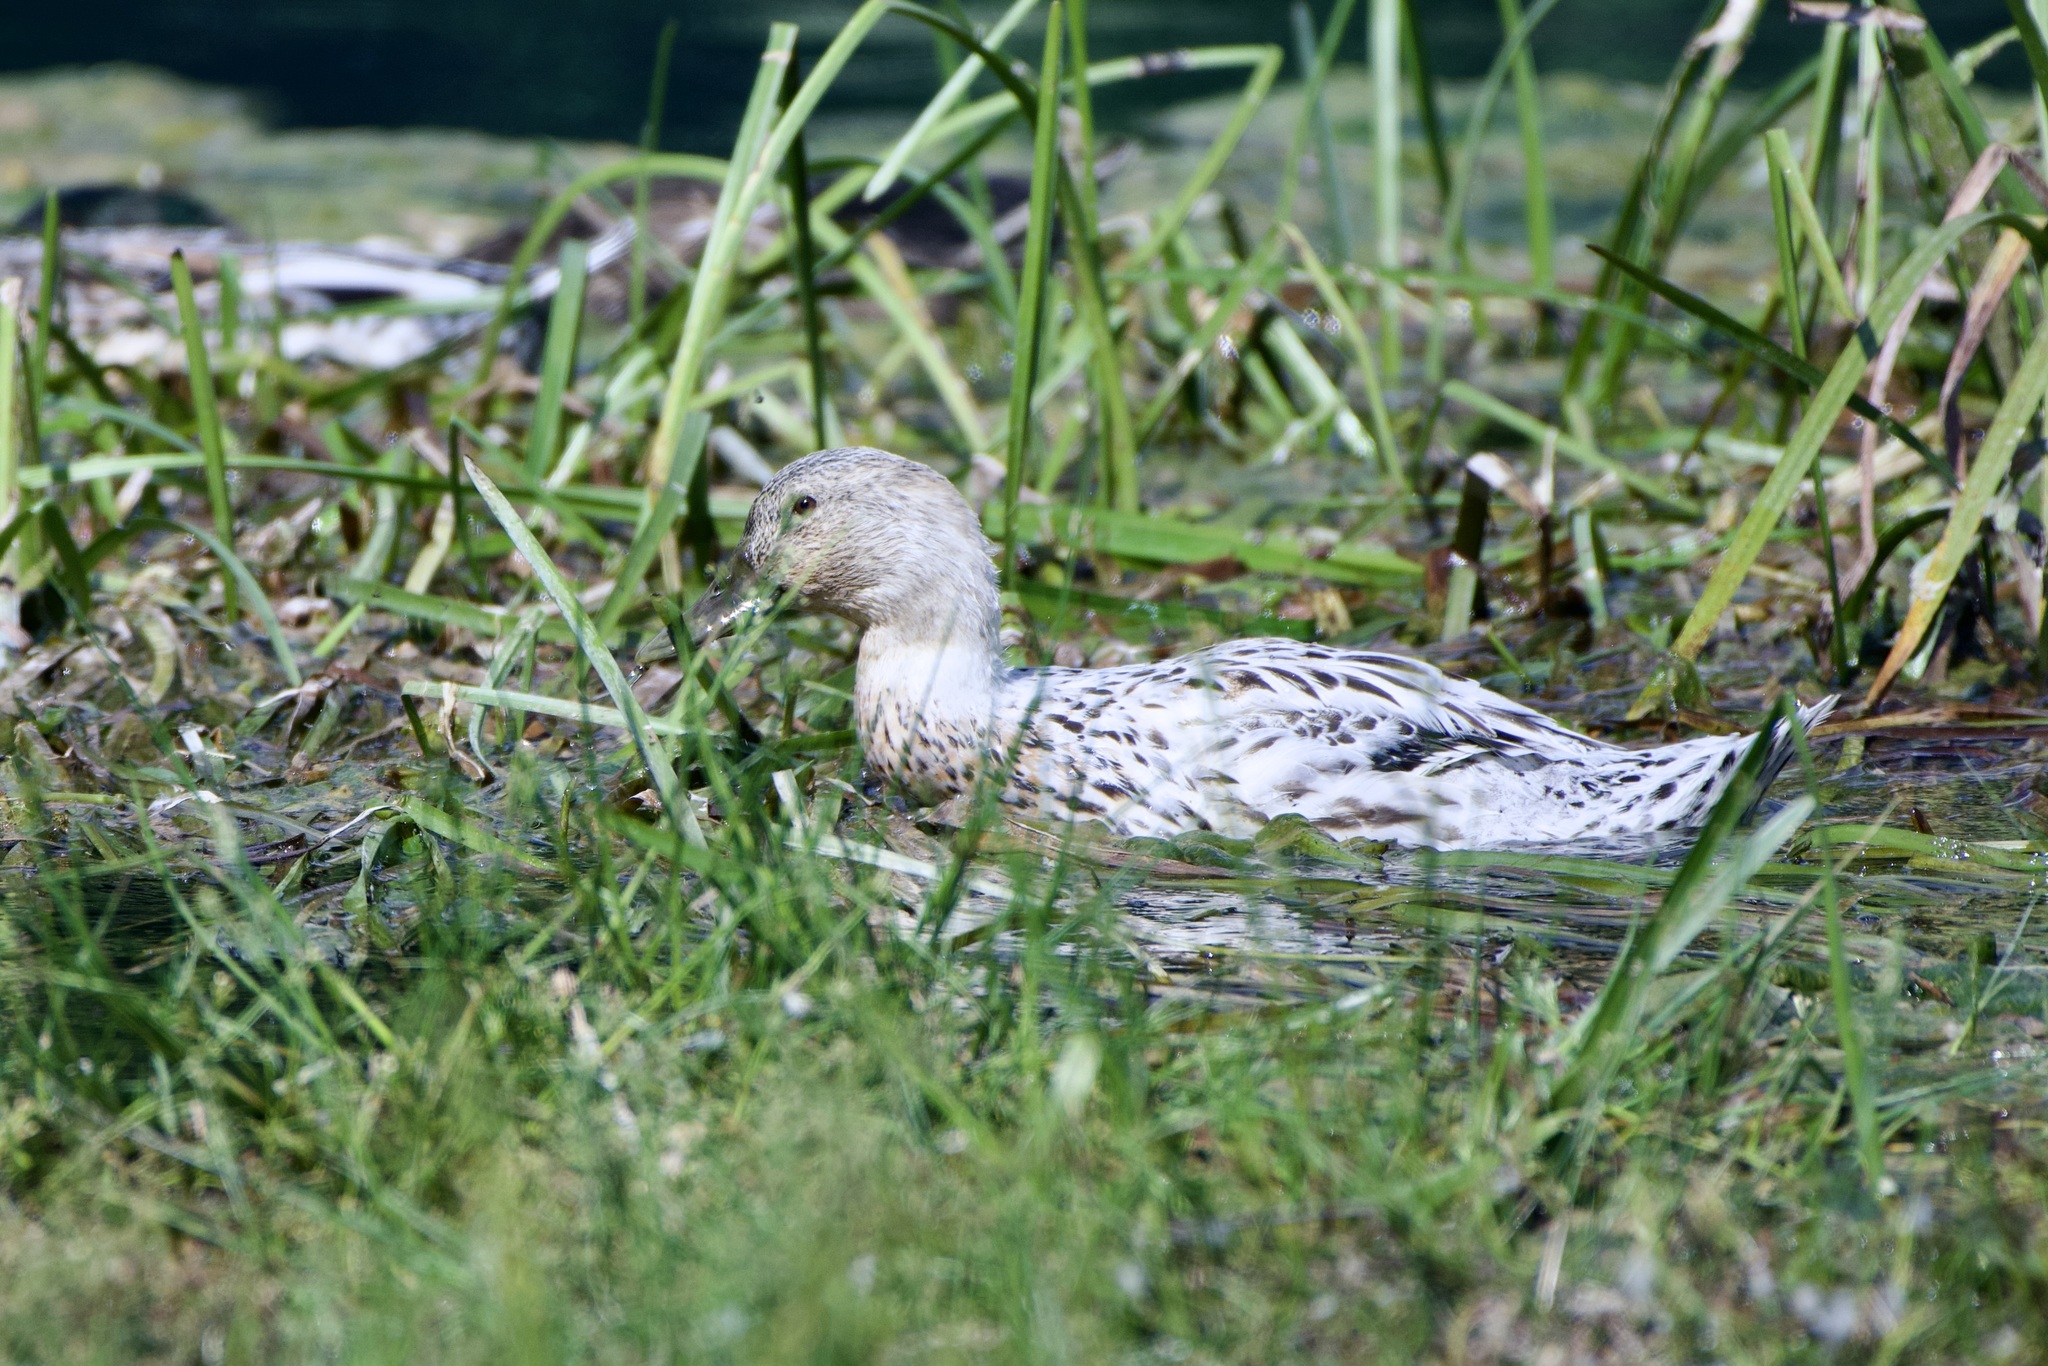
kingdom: Animalia
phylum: Chordata
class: Aves
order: Anseriformes
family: Anatidae
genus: Anas
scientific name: Anas platyrhynchos
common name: Mallard
